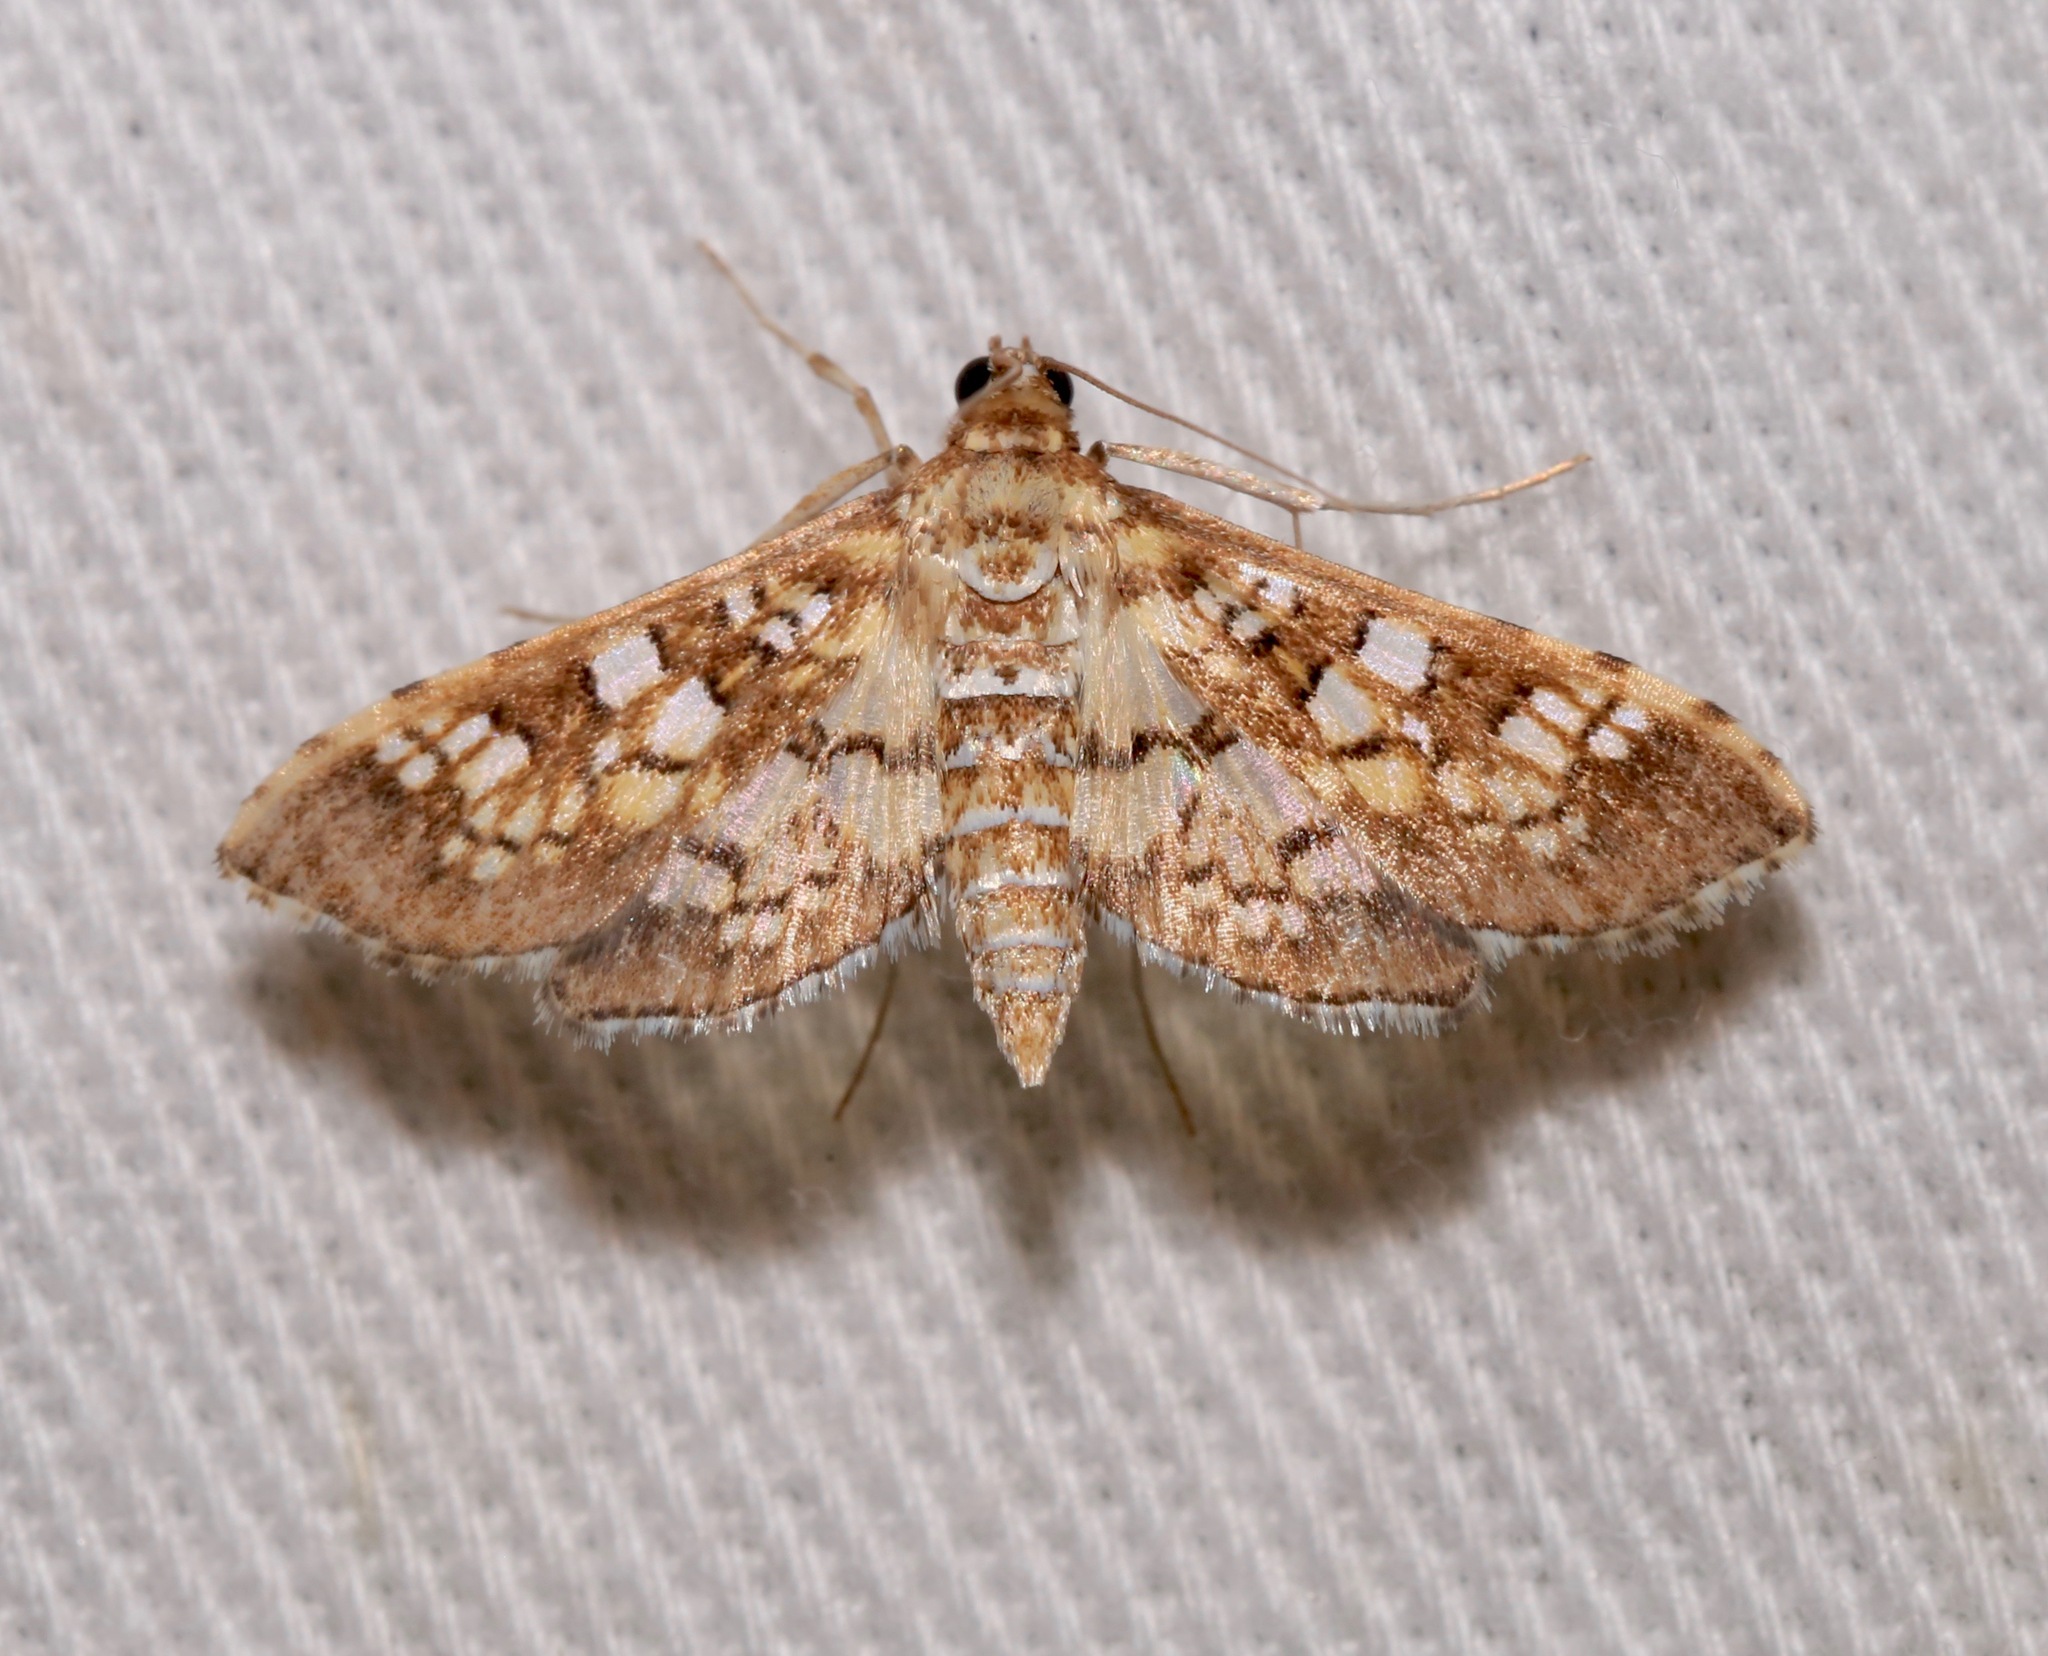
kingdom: Animalia
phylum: Arthropoda
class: Insecta
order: Lepidoptera
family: Crambidae
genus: Samea
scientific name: Samea ecclesialis
